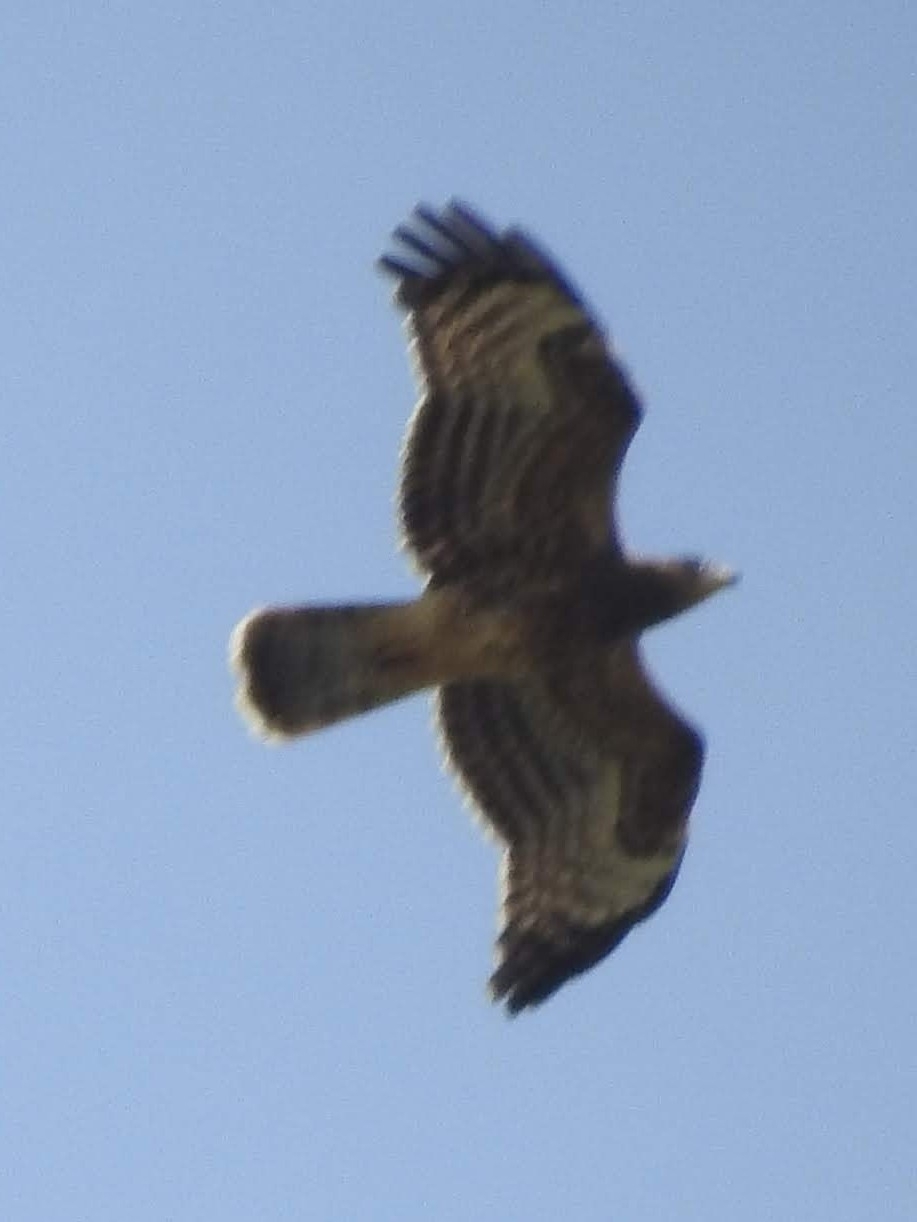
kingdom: Animalia
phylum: Chordata
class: Aves
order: Accipitriformes
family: Accipitridae
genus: Pernis
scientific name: Pernis apivorus
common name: European honey buzzard
